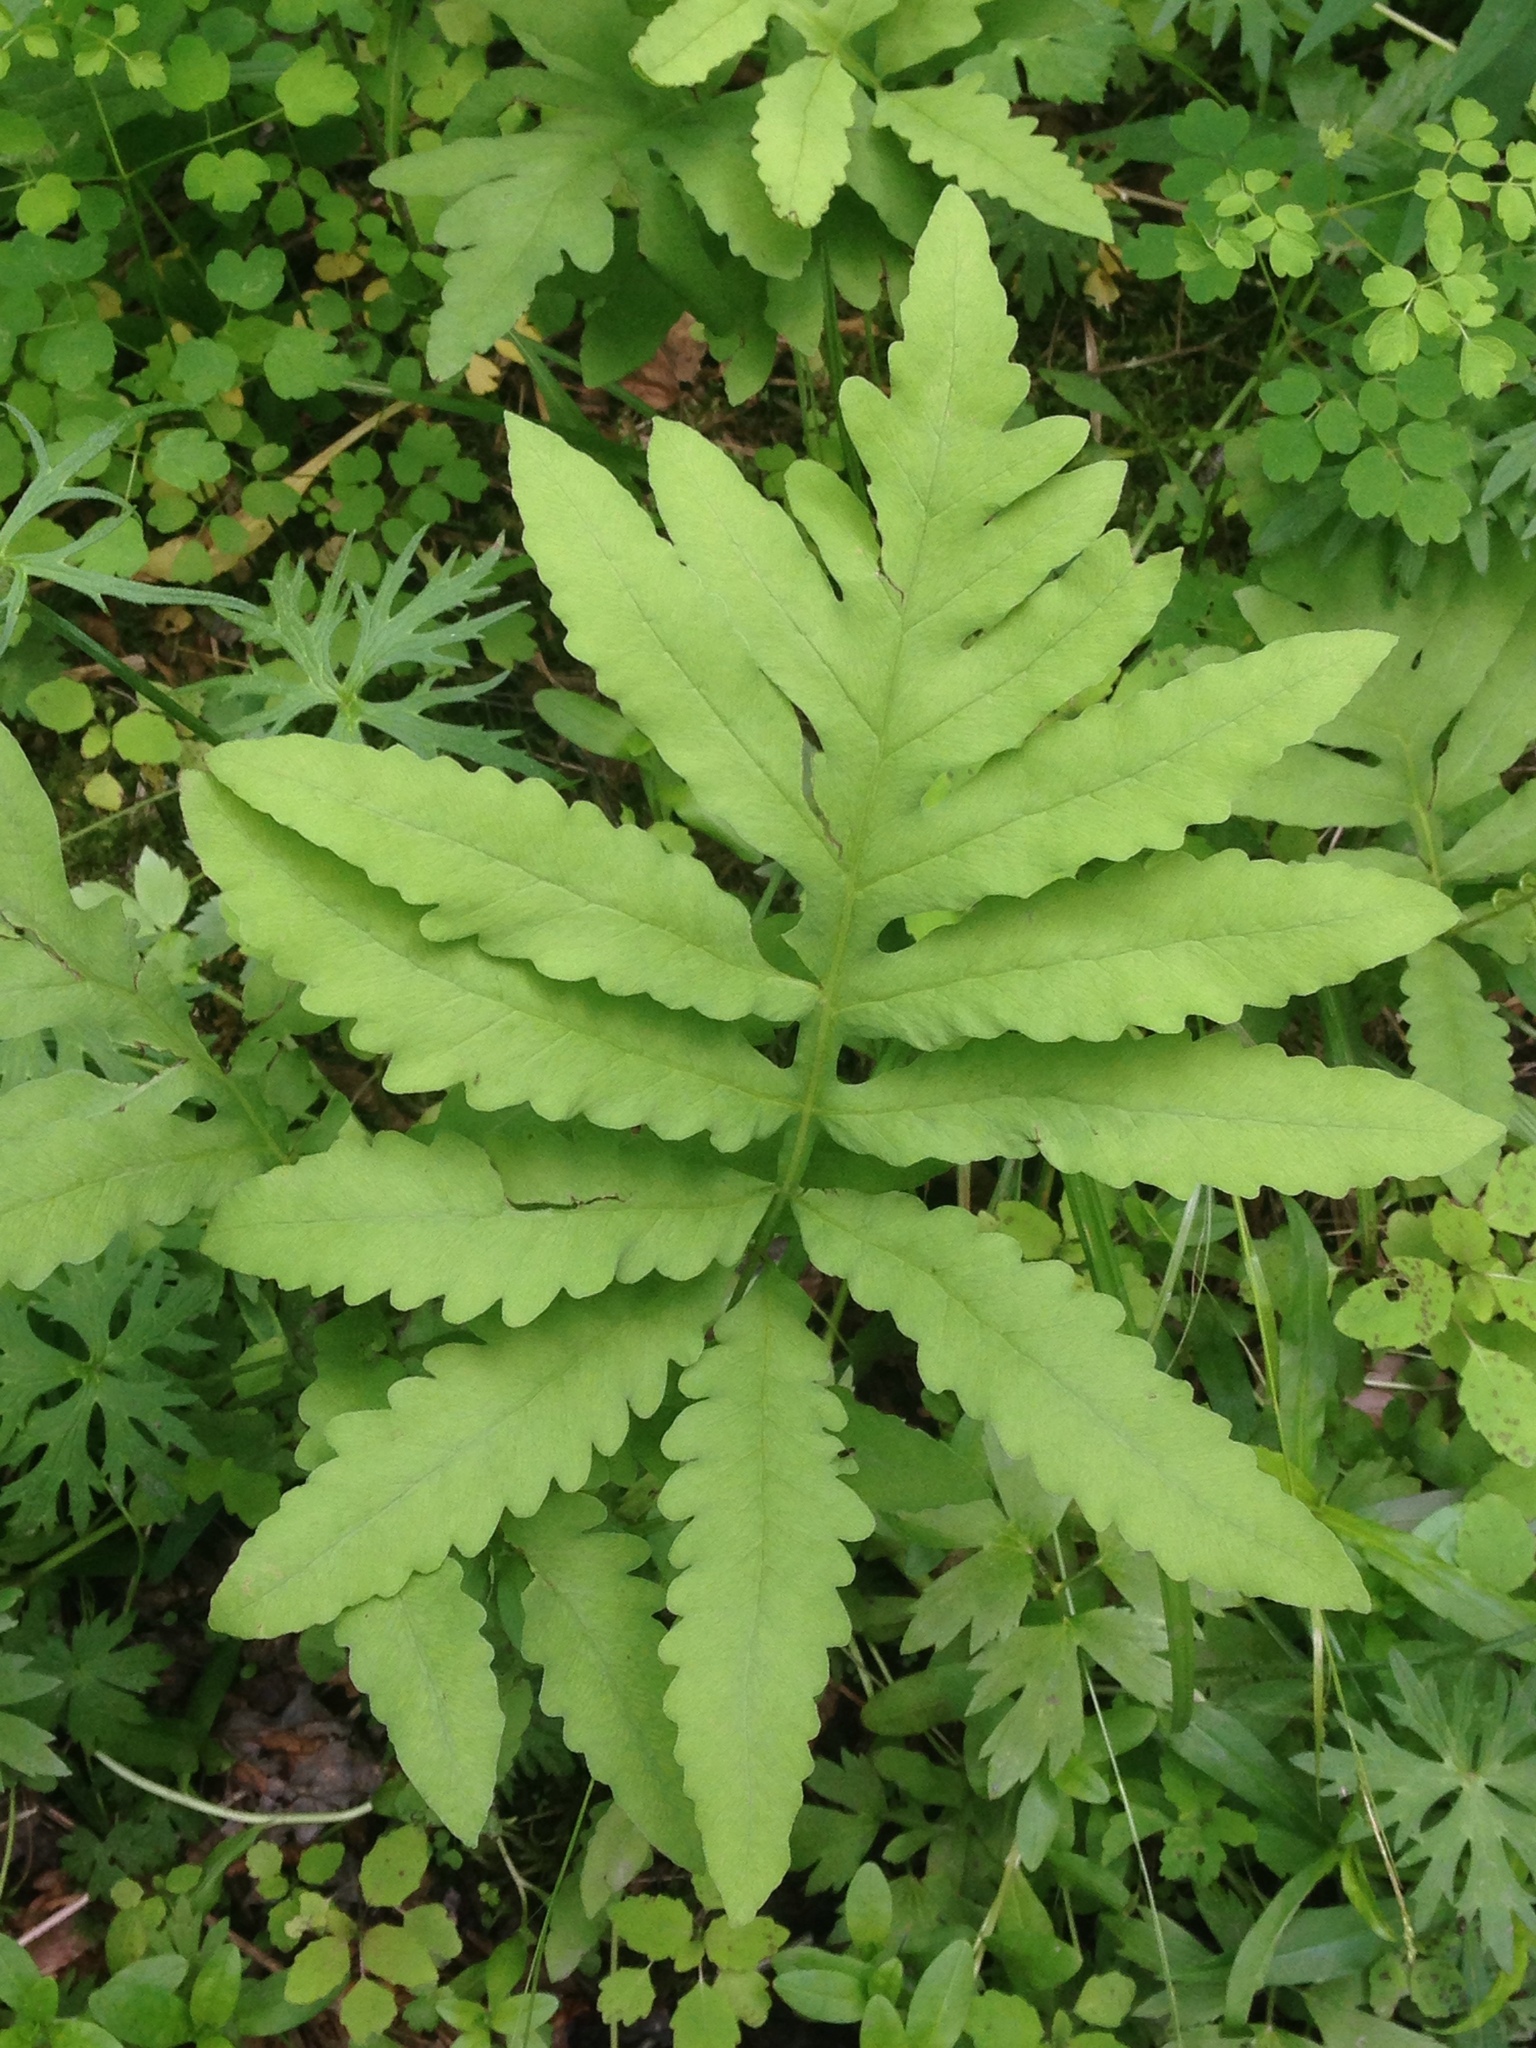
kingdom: Plantae
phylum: Tracheophyta
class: Polypodiopsida
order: Polypodiales
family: Onocleaceae
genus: Onoclea
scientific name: Onoclea sensibilis
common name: Sensitive fern
